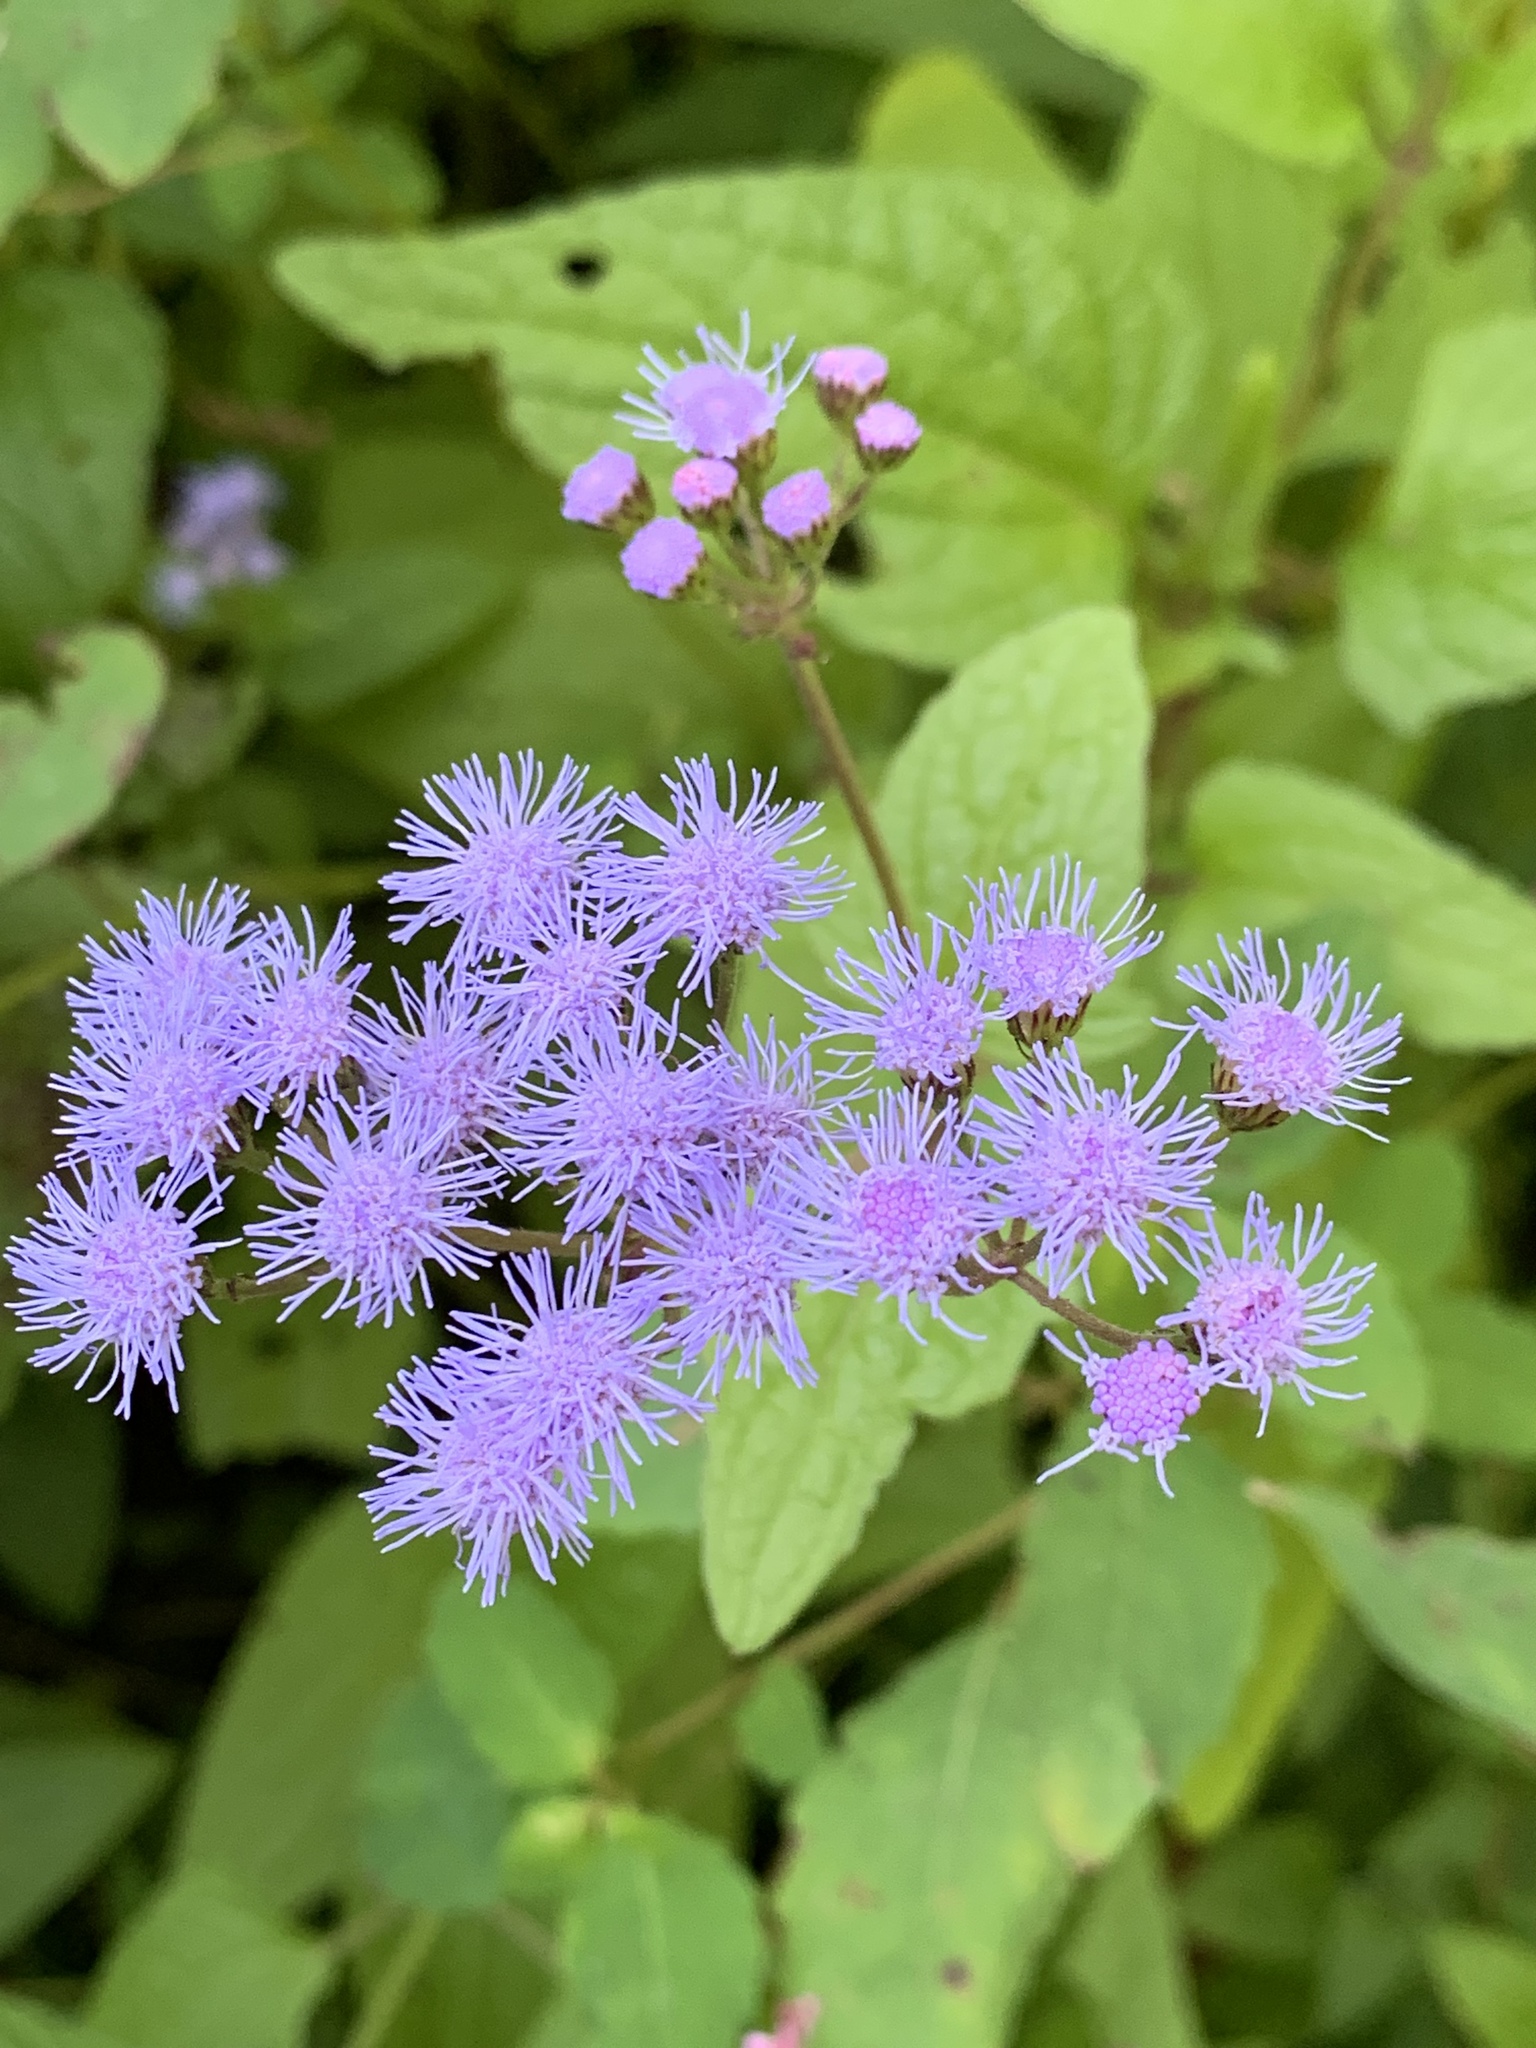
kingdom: Plantae
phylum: Tracheophyta
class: Magnoliopsida
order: Asterales
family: Asteraceae
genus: Conoclinium
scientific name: Conoclinium coelestinum
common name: Blue mistflower
